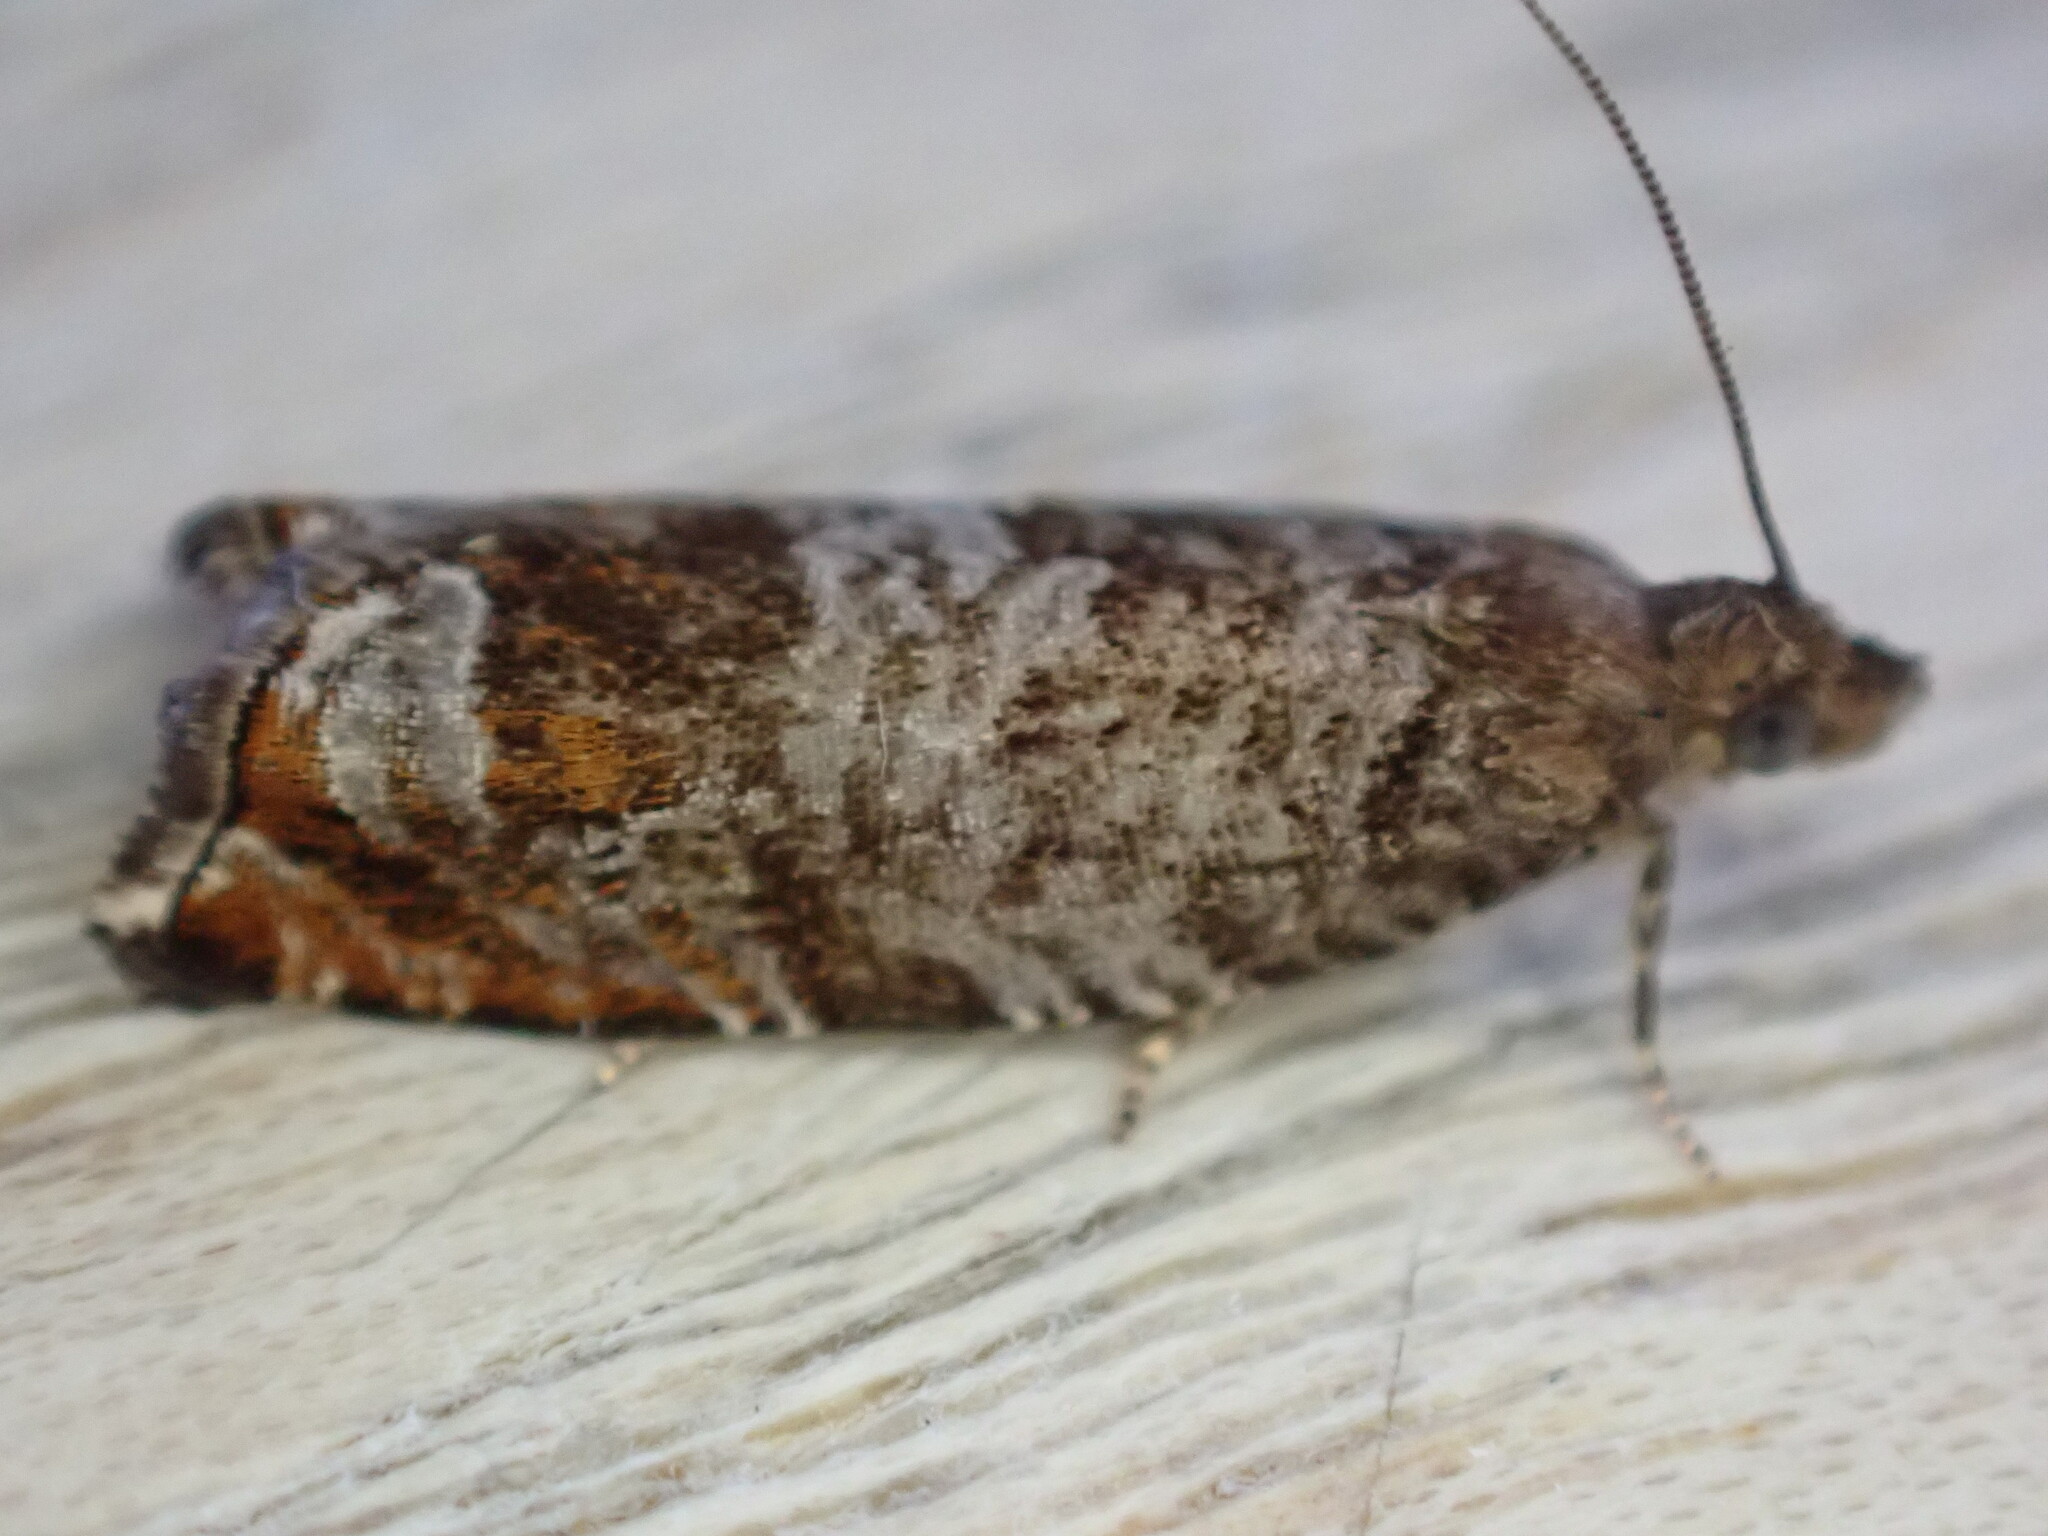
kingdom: Animalia
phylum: Arthropoda
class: Insecta
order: Lepidoptera
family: Tortricidae
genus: Ancylis
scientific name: Ancylis achatana
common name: Triangle-marked roller
